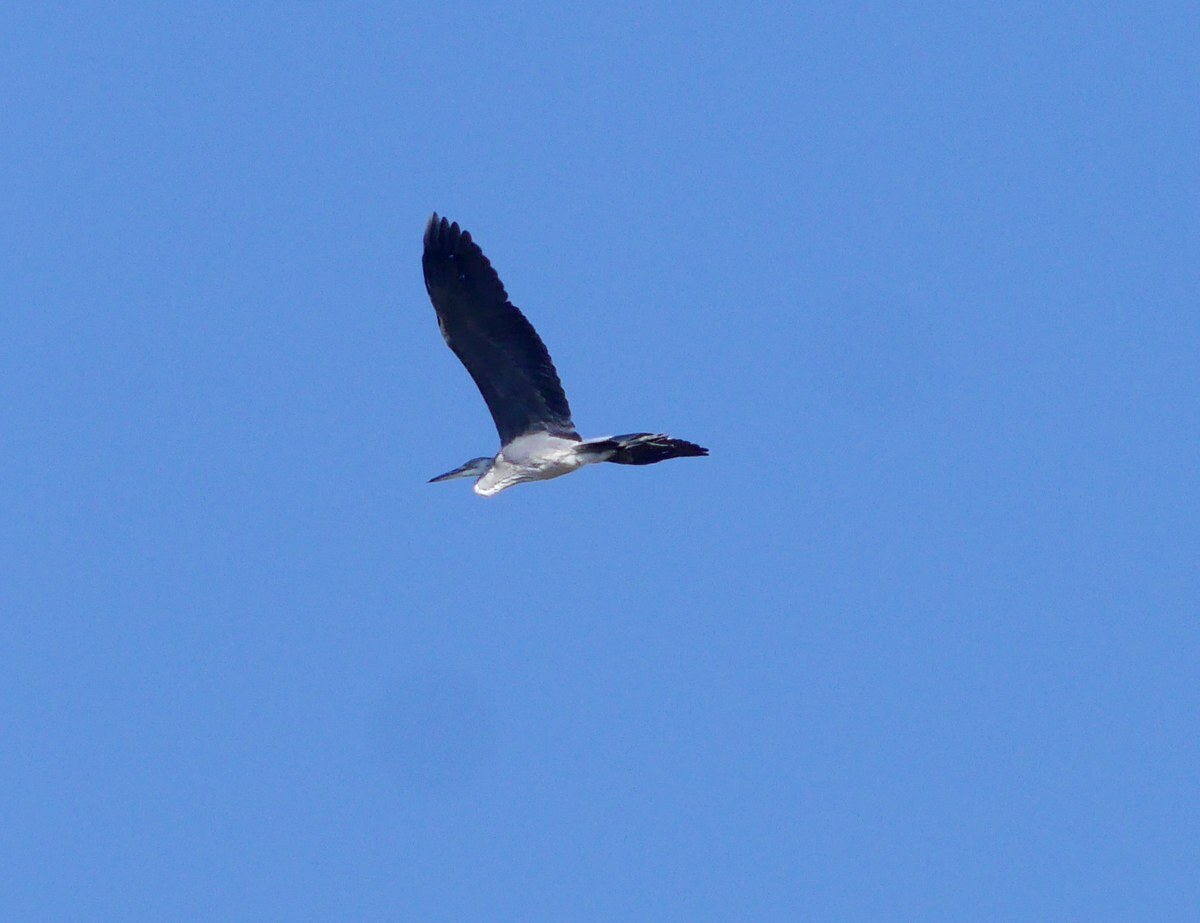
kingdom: Animalia
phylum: Chordata
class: Aves
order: Pelecaniformes
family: Ardeidae
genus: Ardea
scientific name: Ardea cinerea
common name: Grey heron
